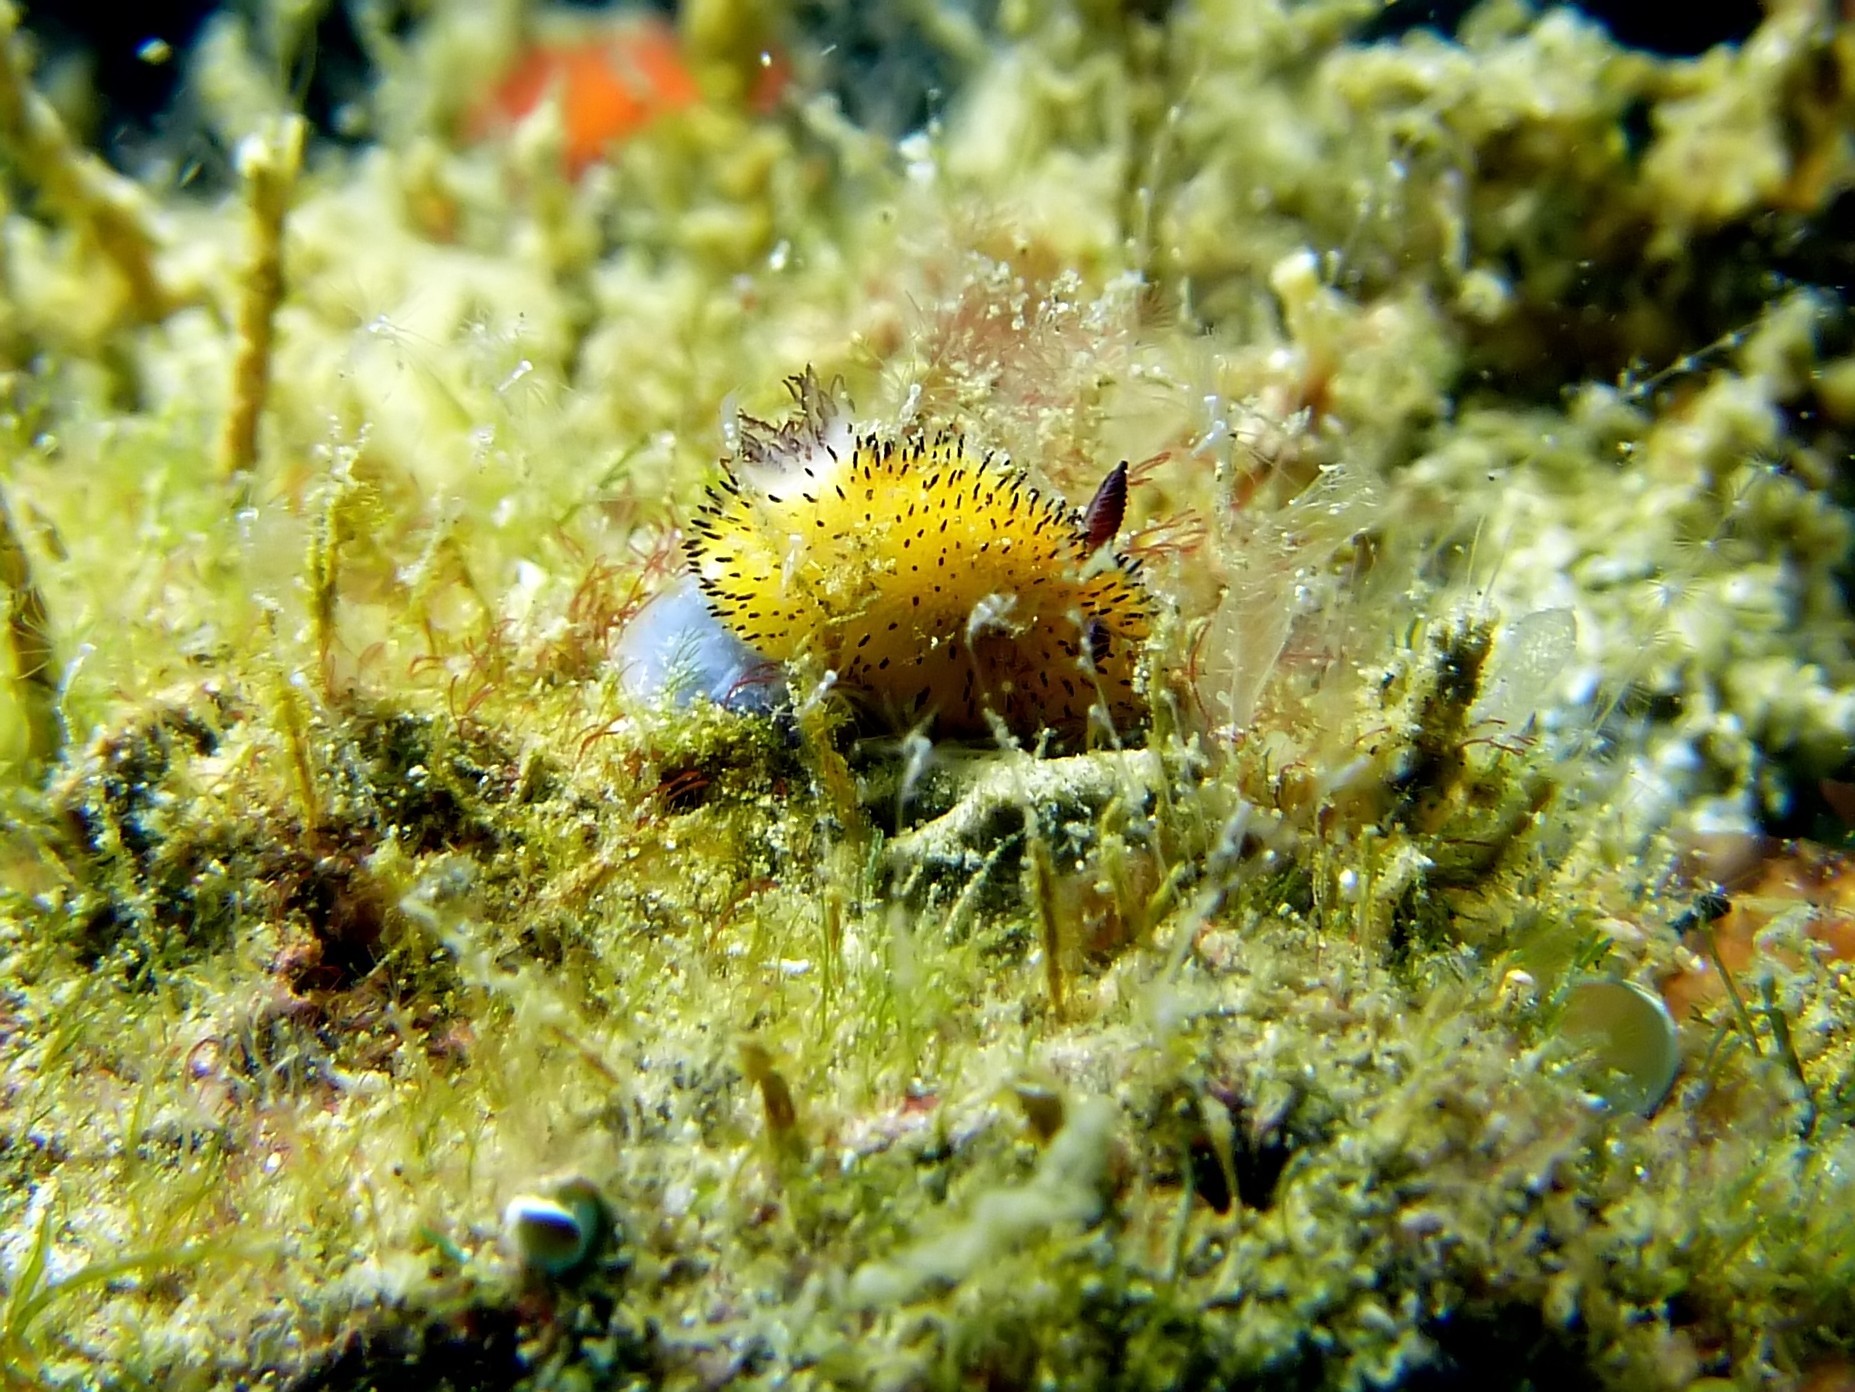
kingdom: Animalia
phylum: Mollusca
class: Gastropoda
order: Nudibranchia
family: Discodorididae
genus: Jorunna
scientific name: Jorunna parva
